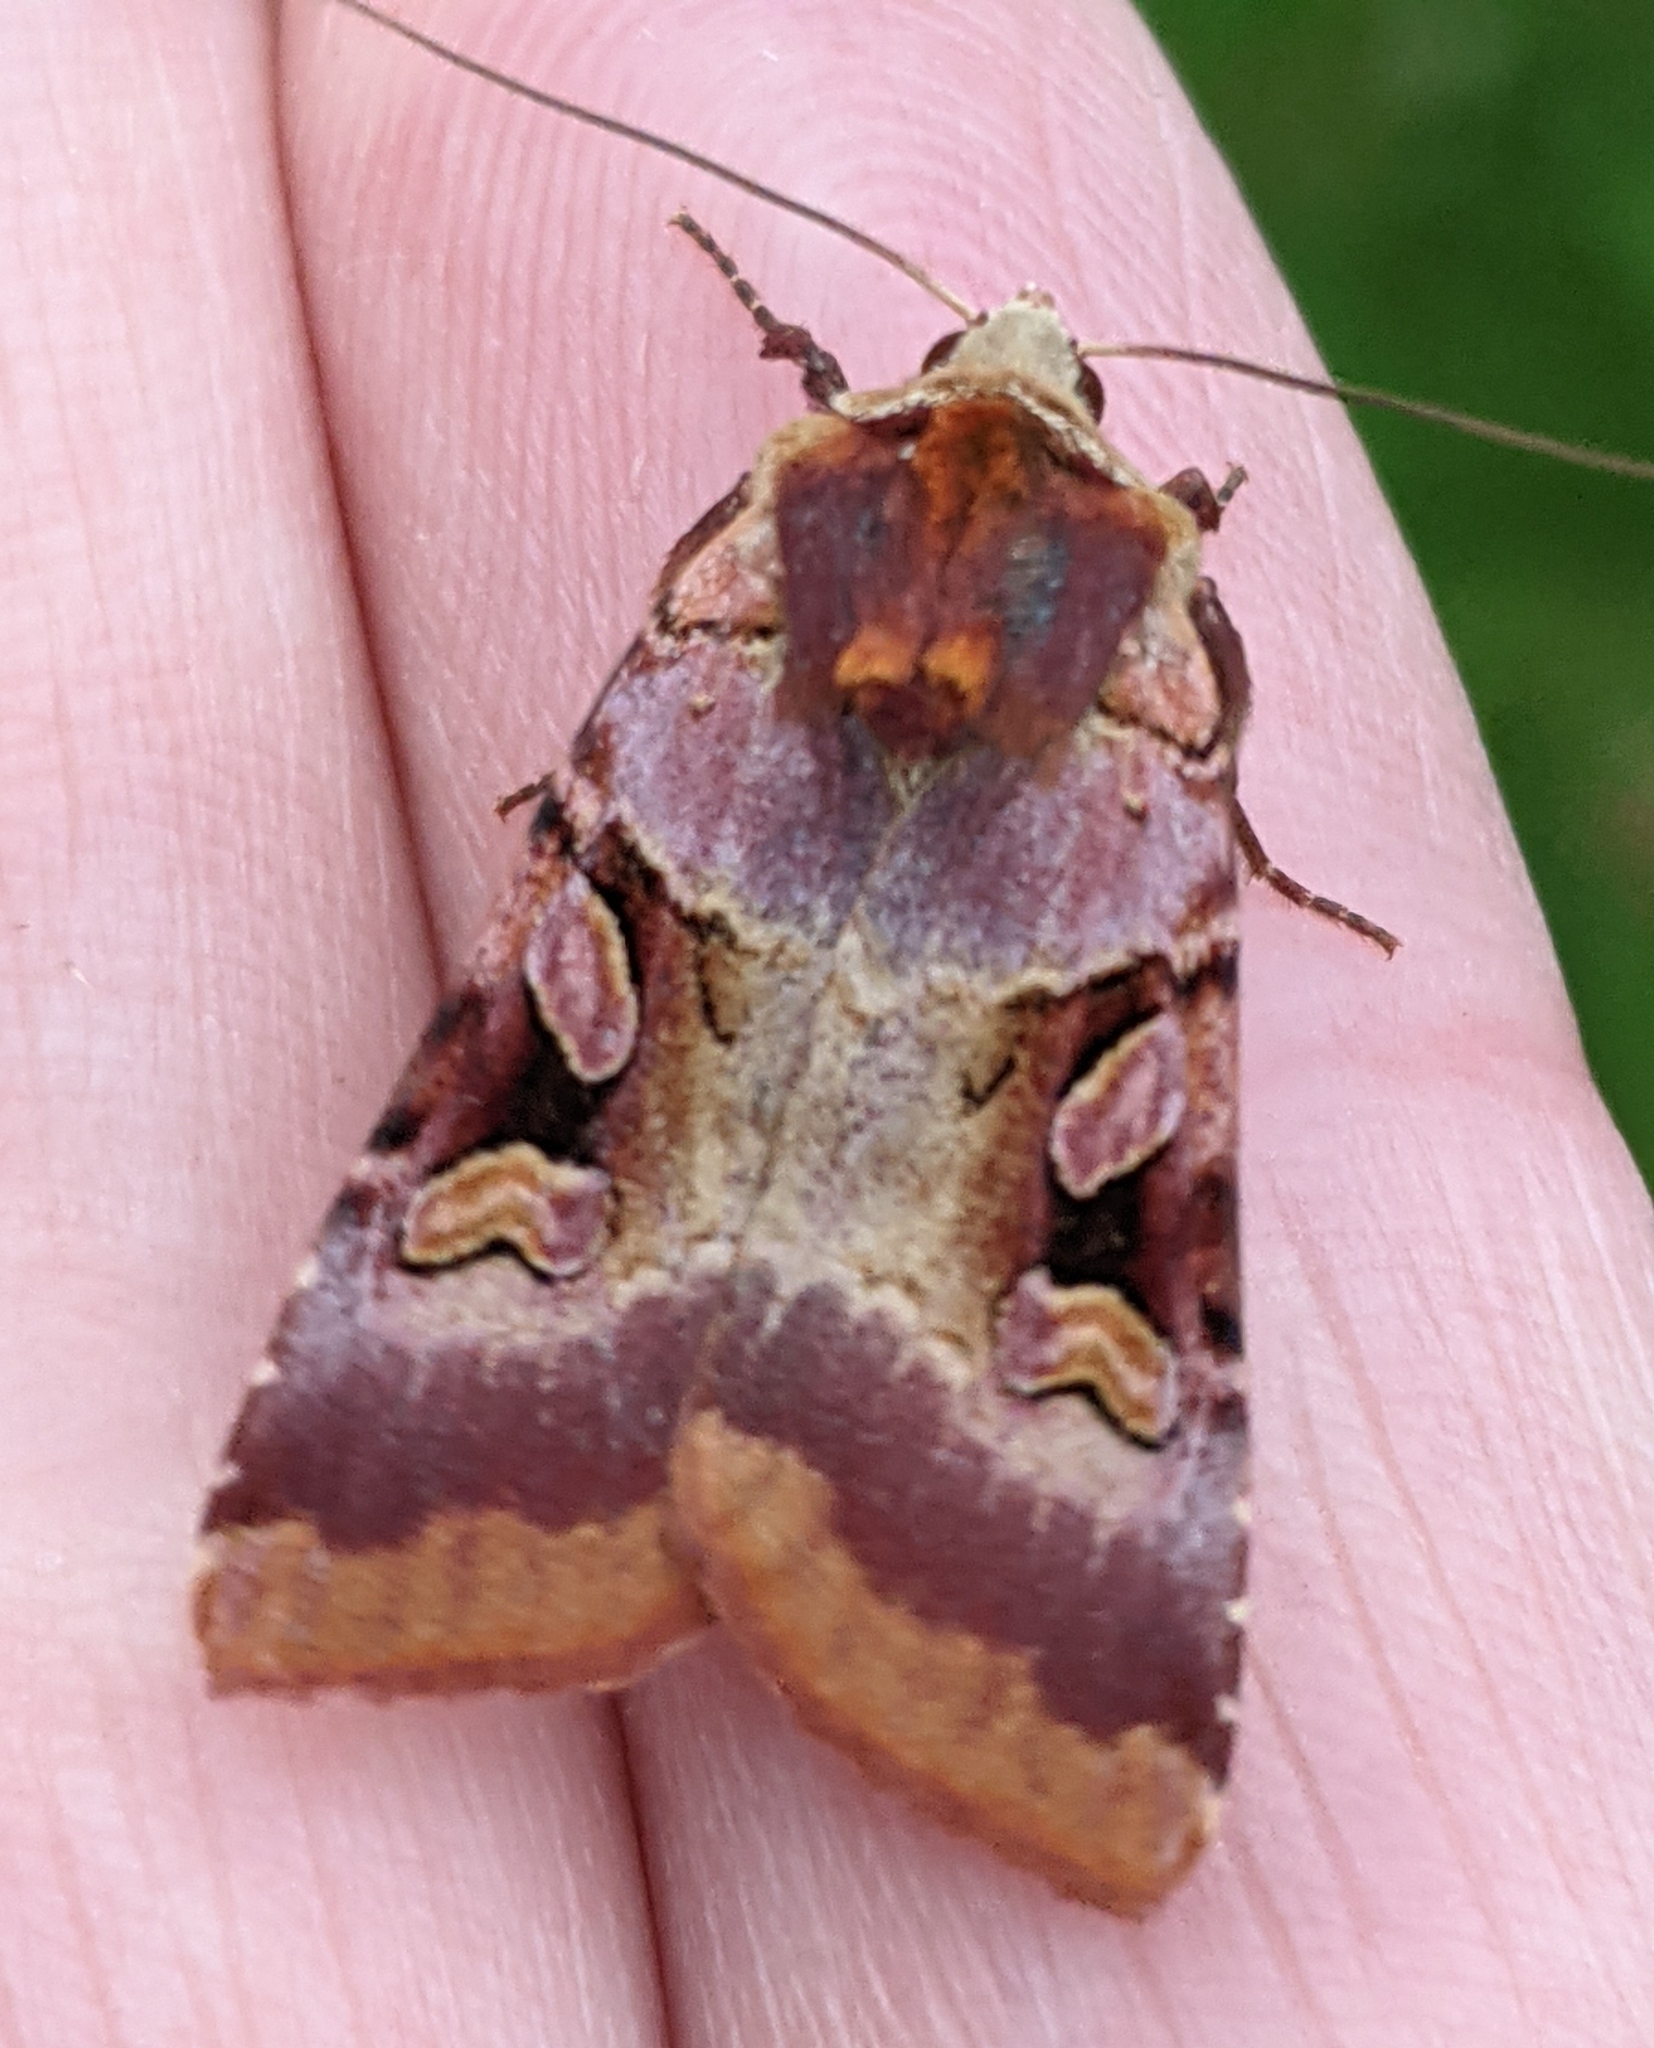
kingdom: Animalia
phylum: Arthropoda
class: Insecta
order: Lepidoptera
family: Noctuidae
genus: Xestia
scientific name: Xestia oblata
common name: Rosy dart
